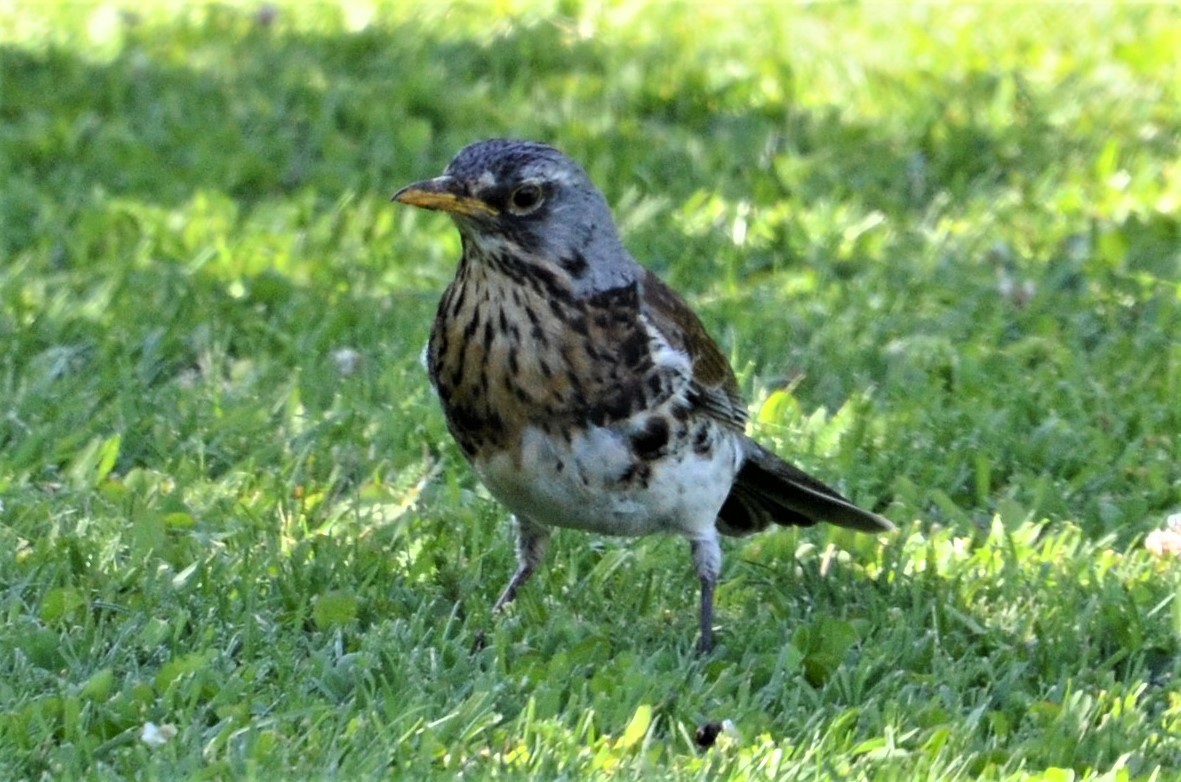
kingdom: Animalia
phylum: Chordata
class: Aves
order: Passeriformes
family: Turdidae
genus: Turdus
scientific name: Turdus pilaris
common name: Fieldfare
